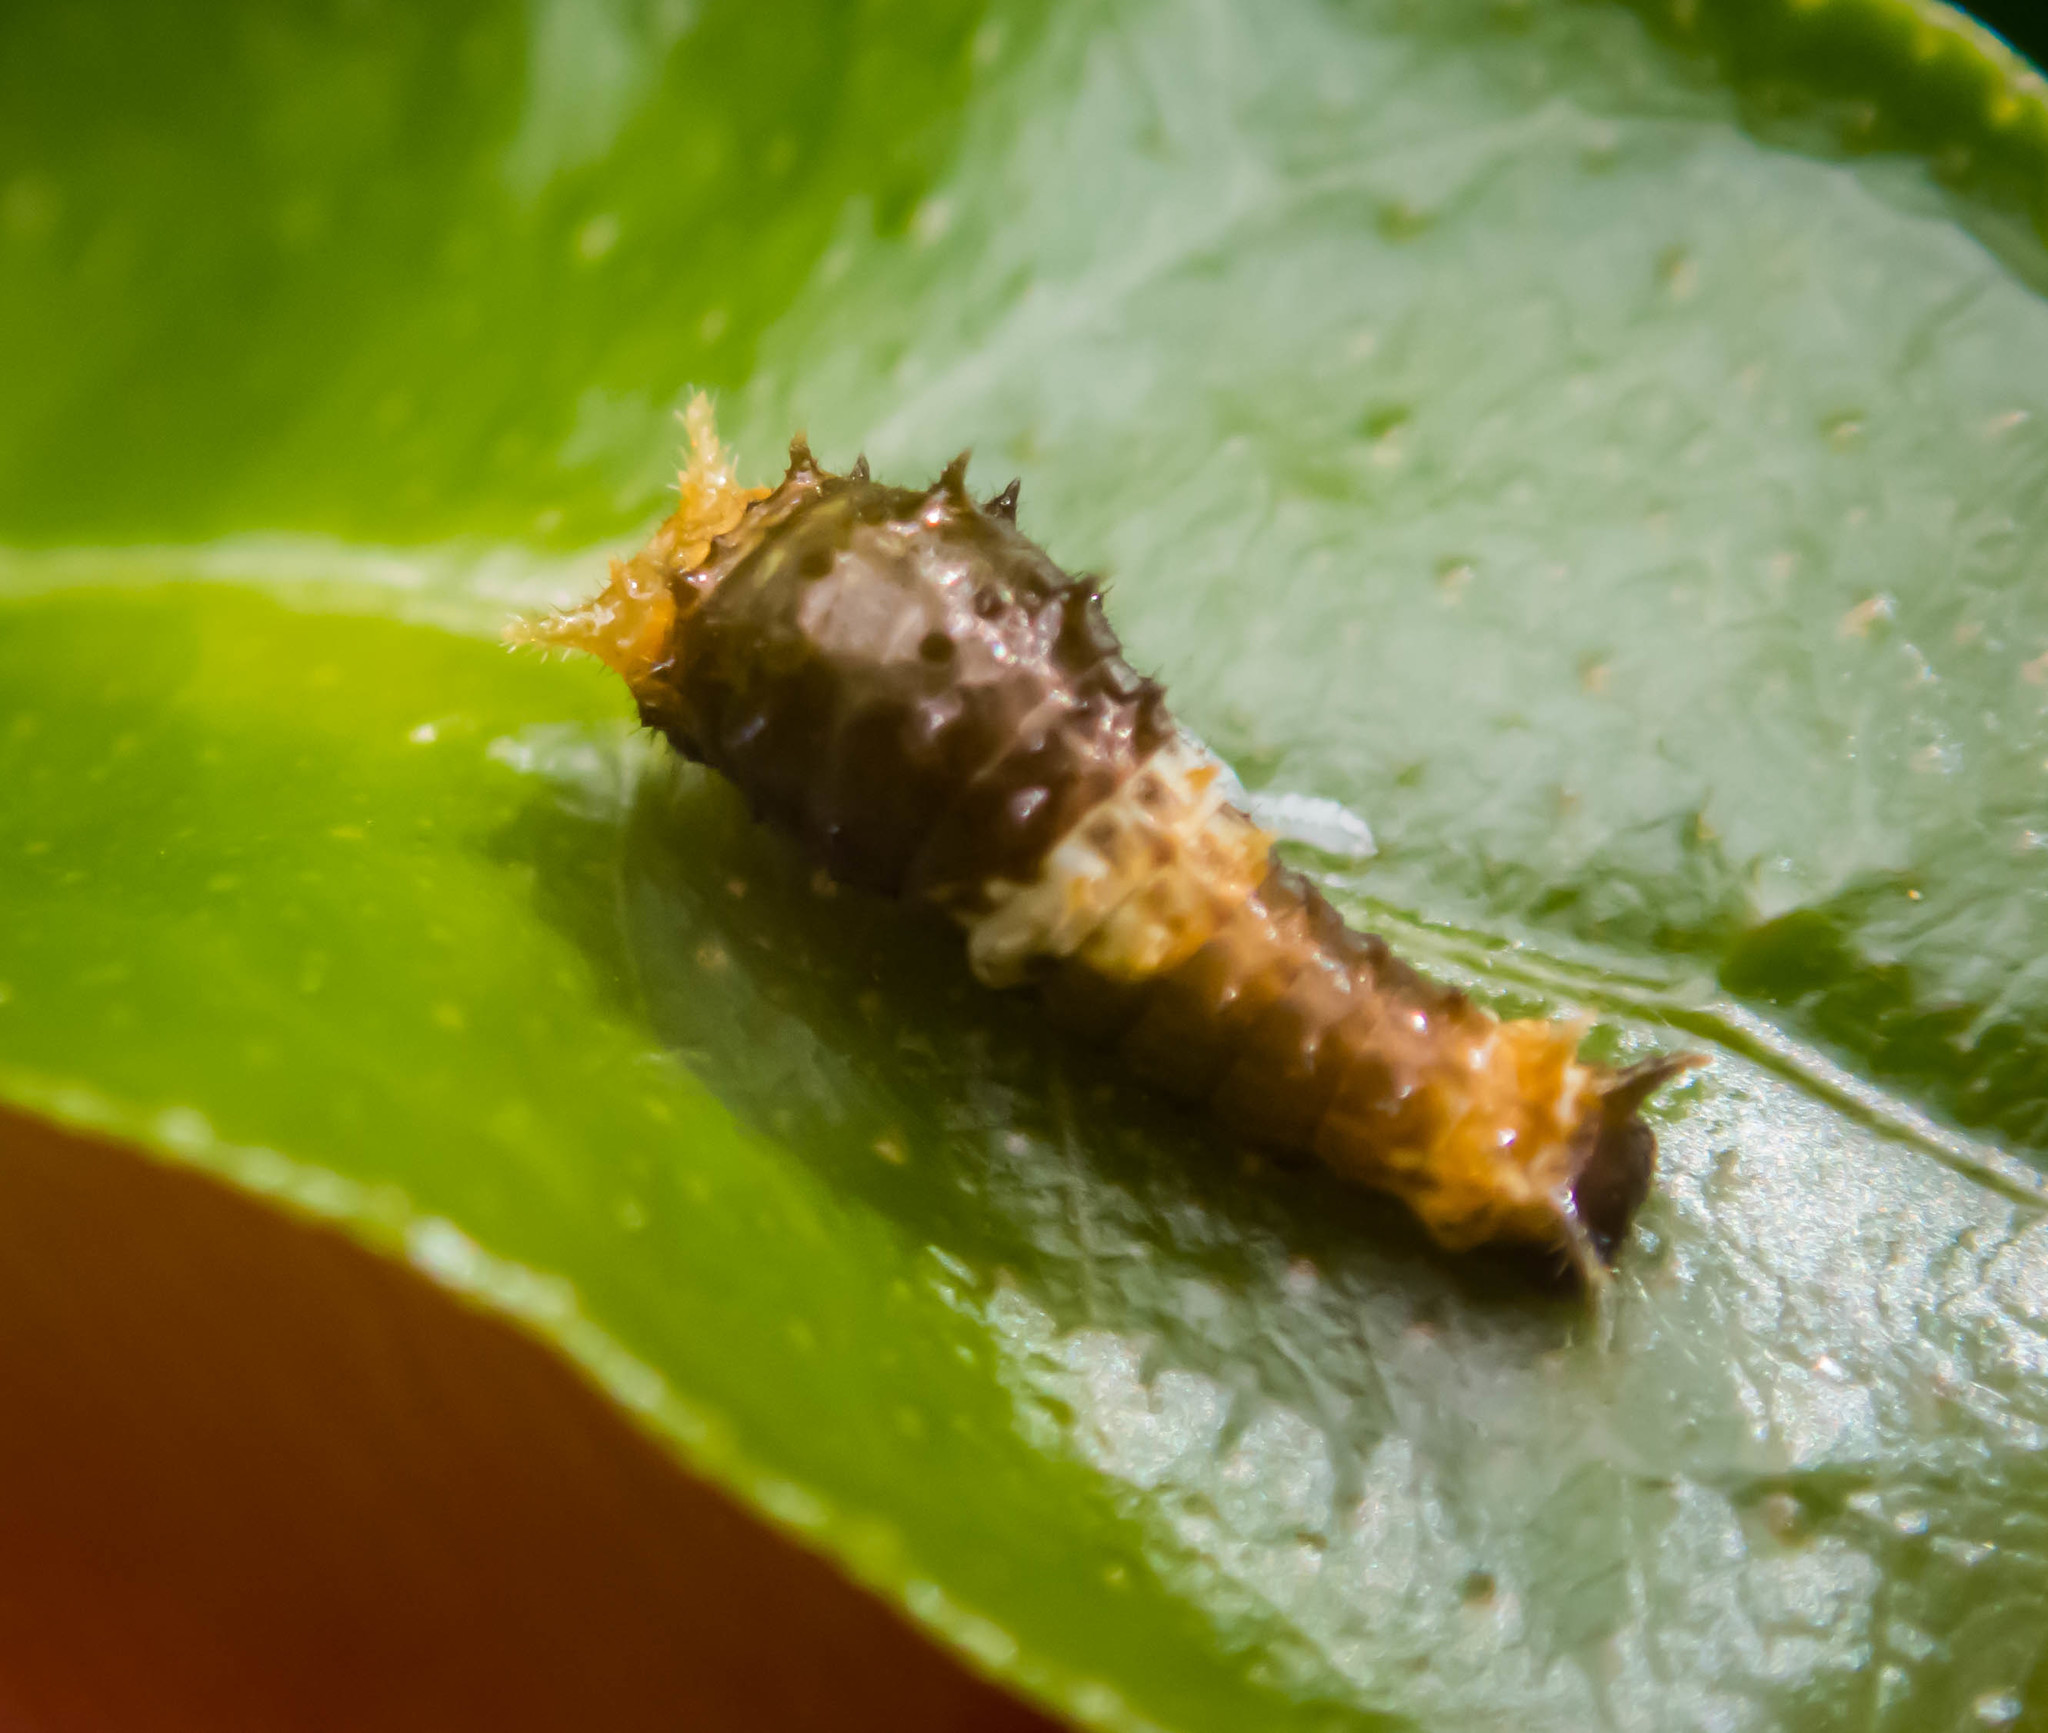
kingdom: Animalia
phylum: Arthropoda
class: Insecta
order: Lepidoptera
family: Lycaenidae
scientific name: Lycaenidae
